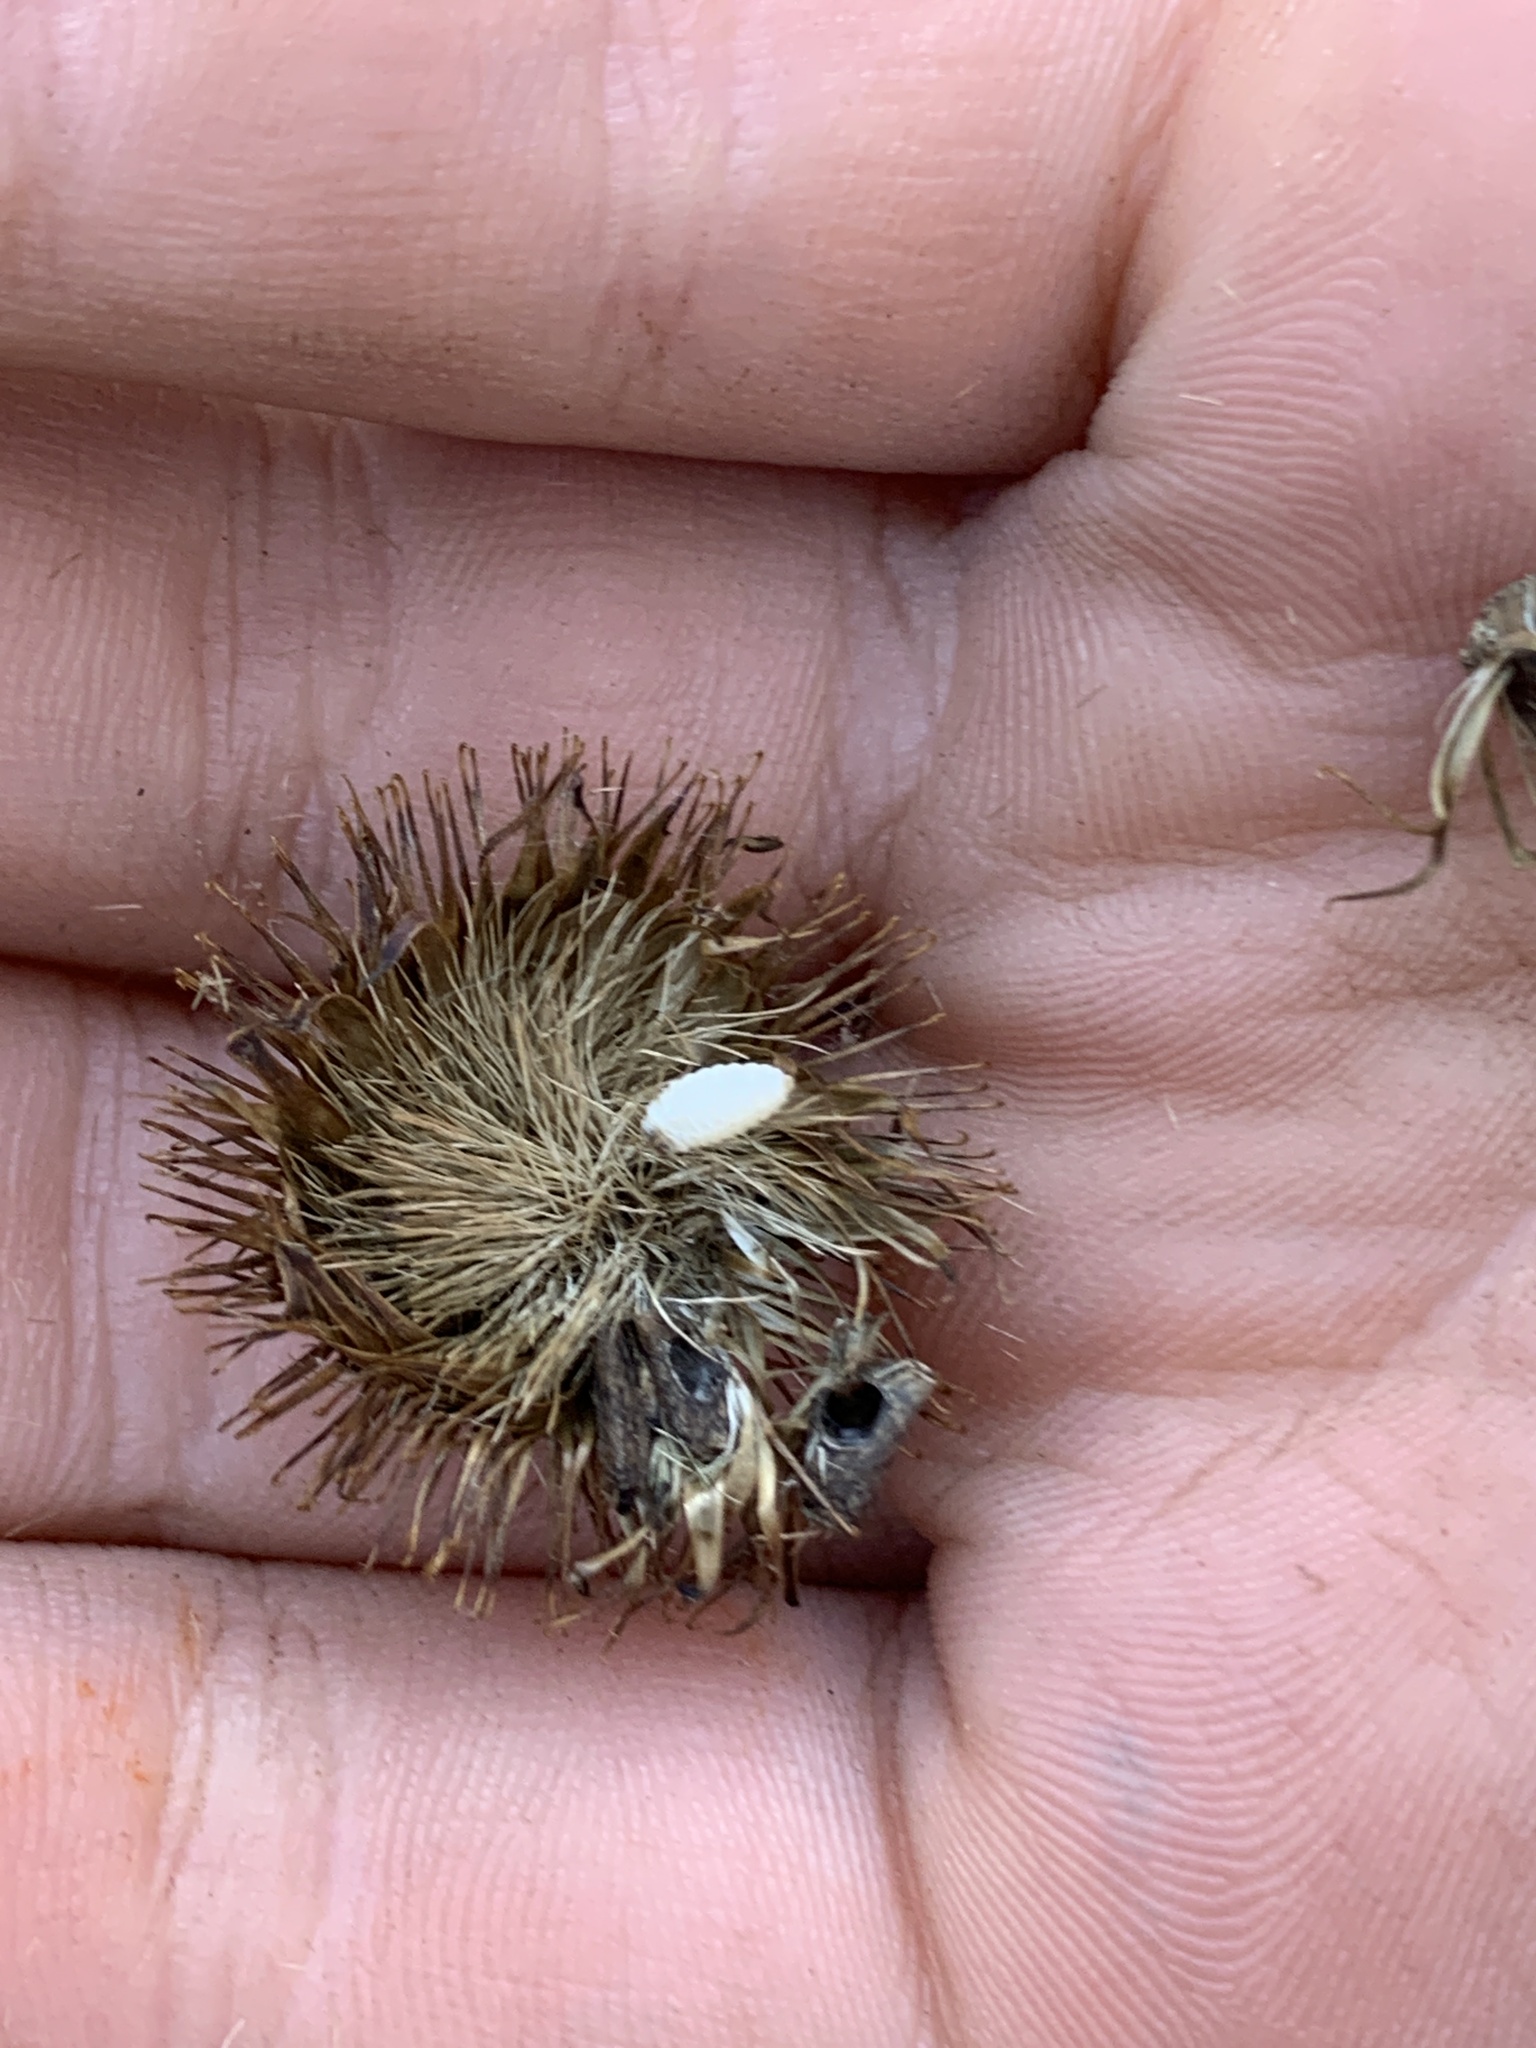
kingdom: Animalia
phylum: Arthropoda
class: Insecta
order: Lepidoptera
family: Gelechiidae
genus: Metzneria
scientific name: Metzneria lappella
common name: Burdock neb
